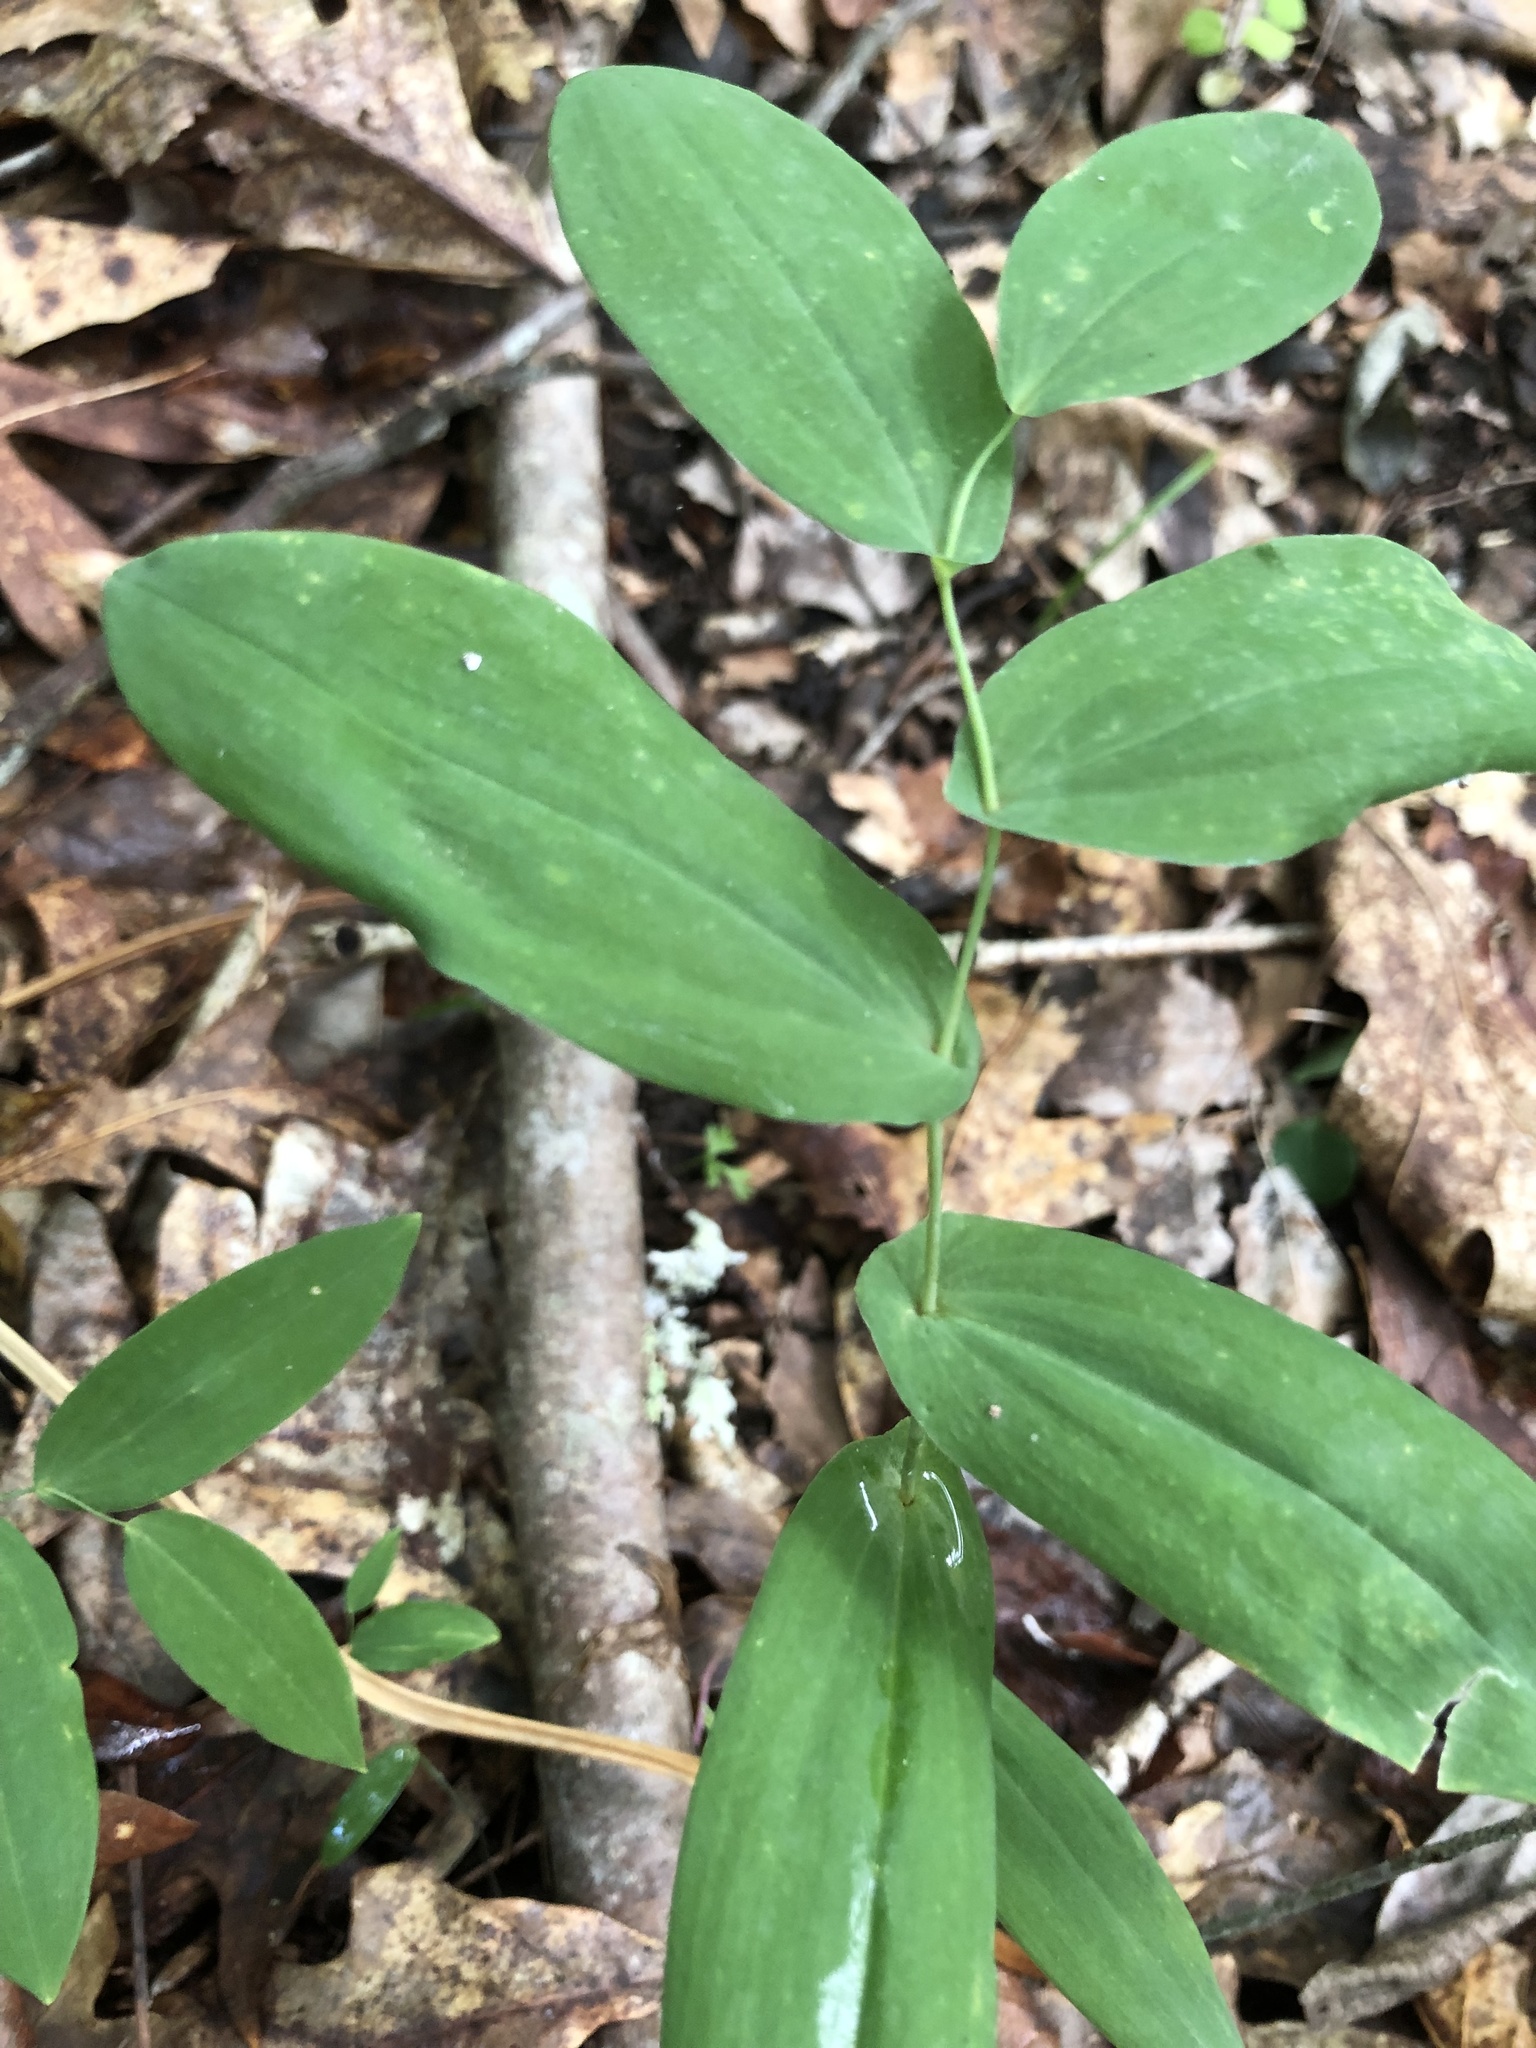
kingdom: Plantae
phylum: Tracheophyta
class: Liliopsida
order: Liliales
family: Colchicaceae
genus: Uvularia
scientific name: Uvularia perfoliata
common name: Perfoliate bellwort
